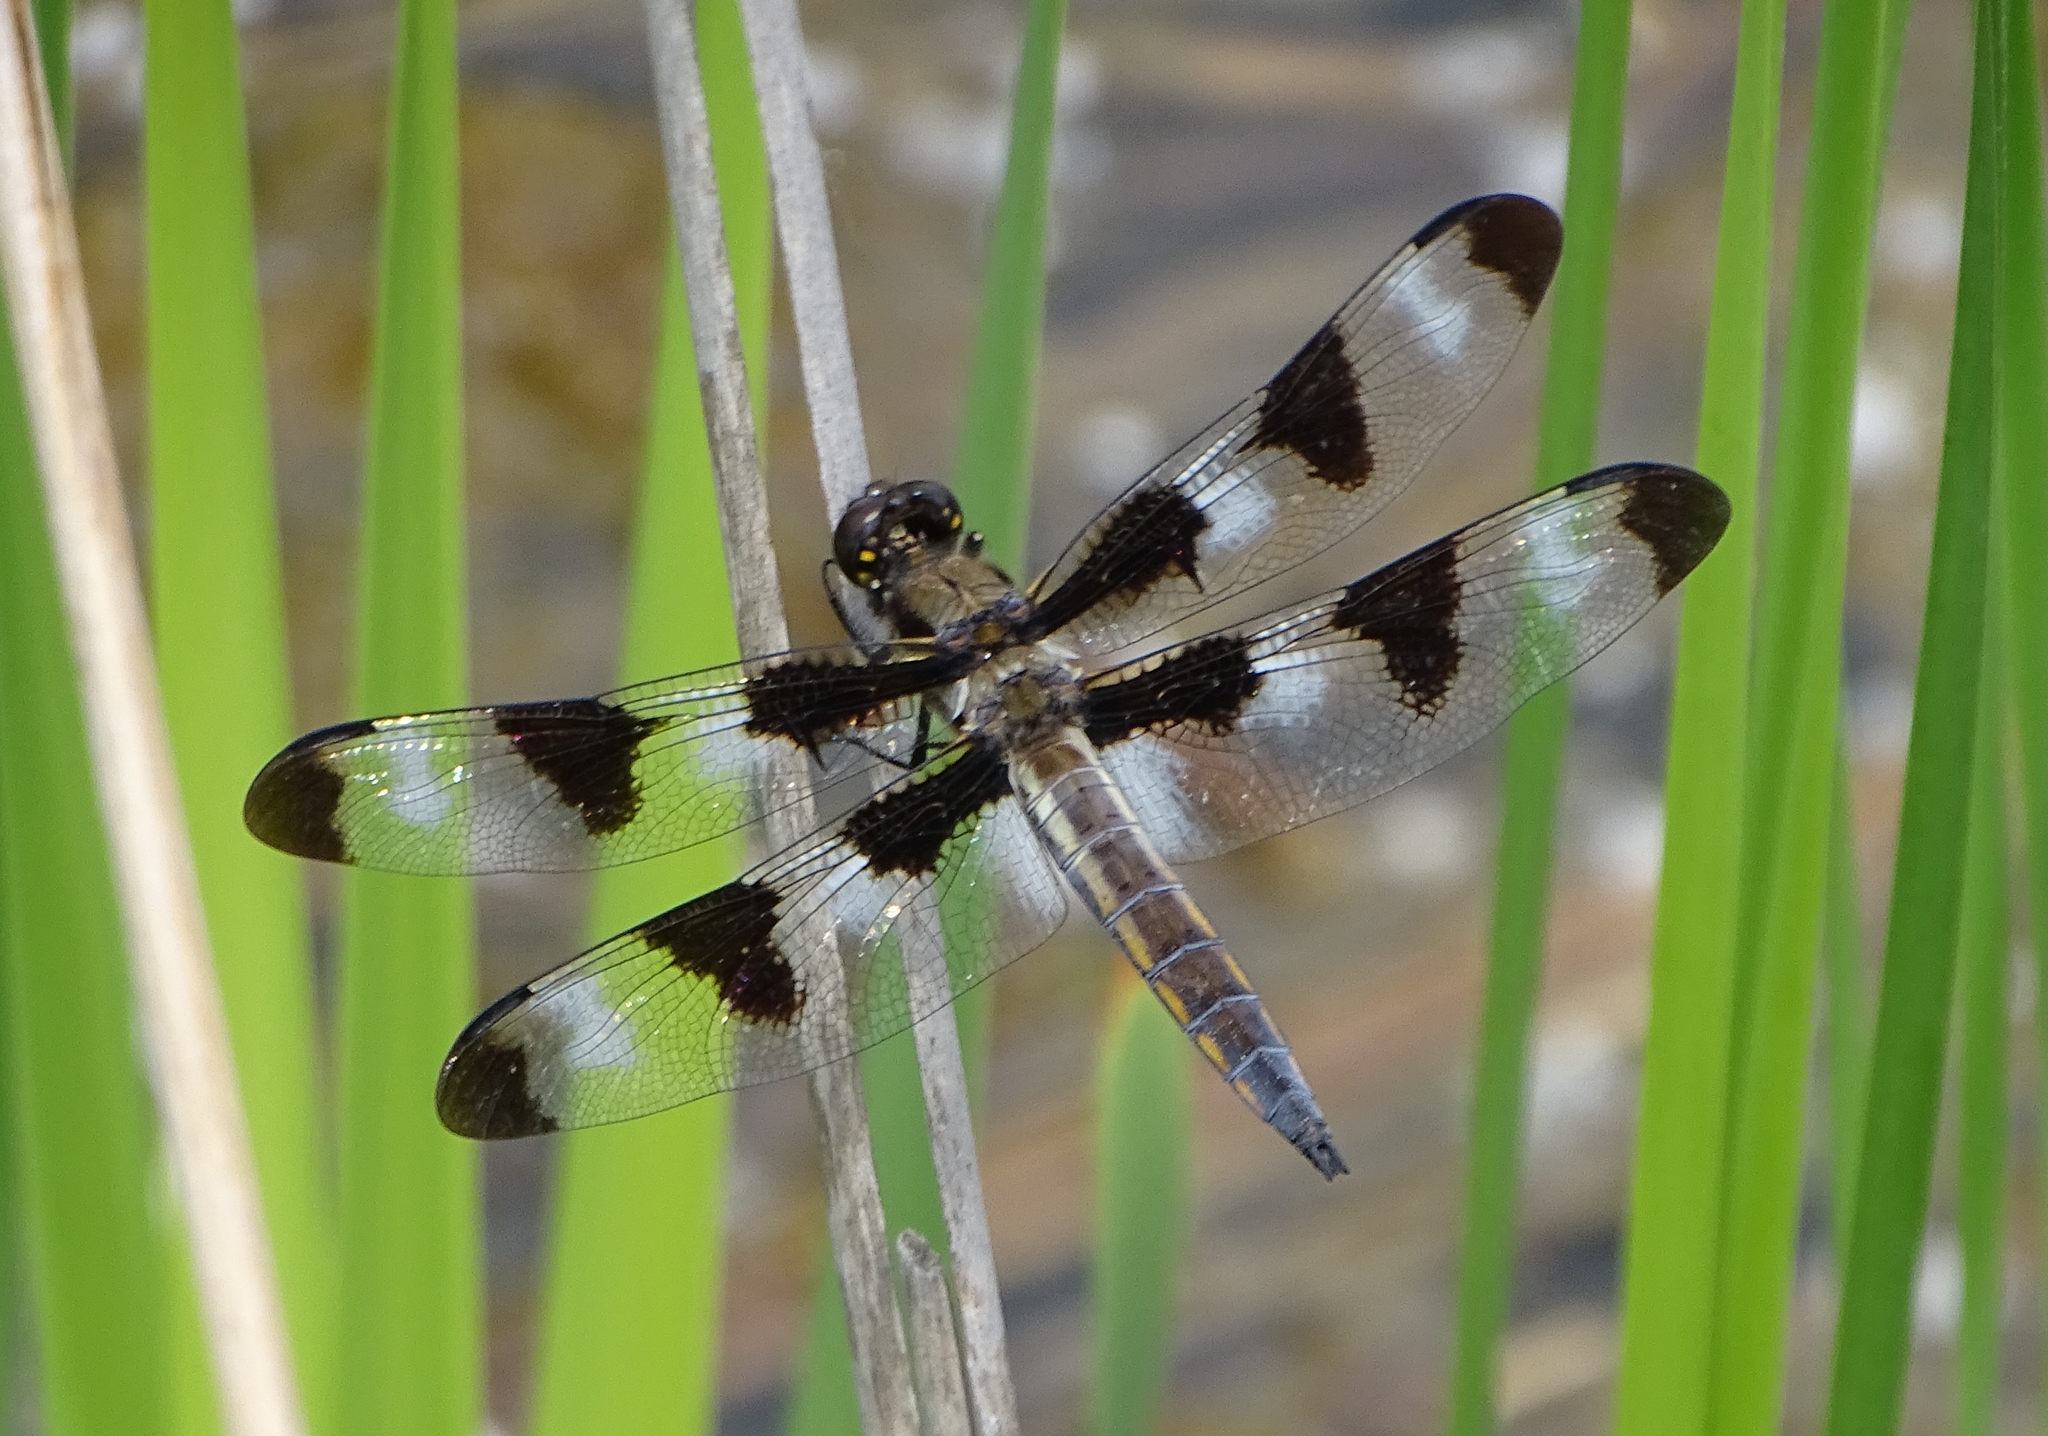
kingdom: Animalia
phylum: Arthropoda
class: Insecta
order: Odonata
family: Libellulidae
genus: Libellula
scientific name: Libellula pulchella
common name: Twelve-spotted skimmer
